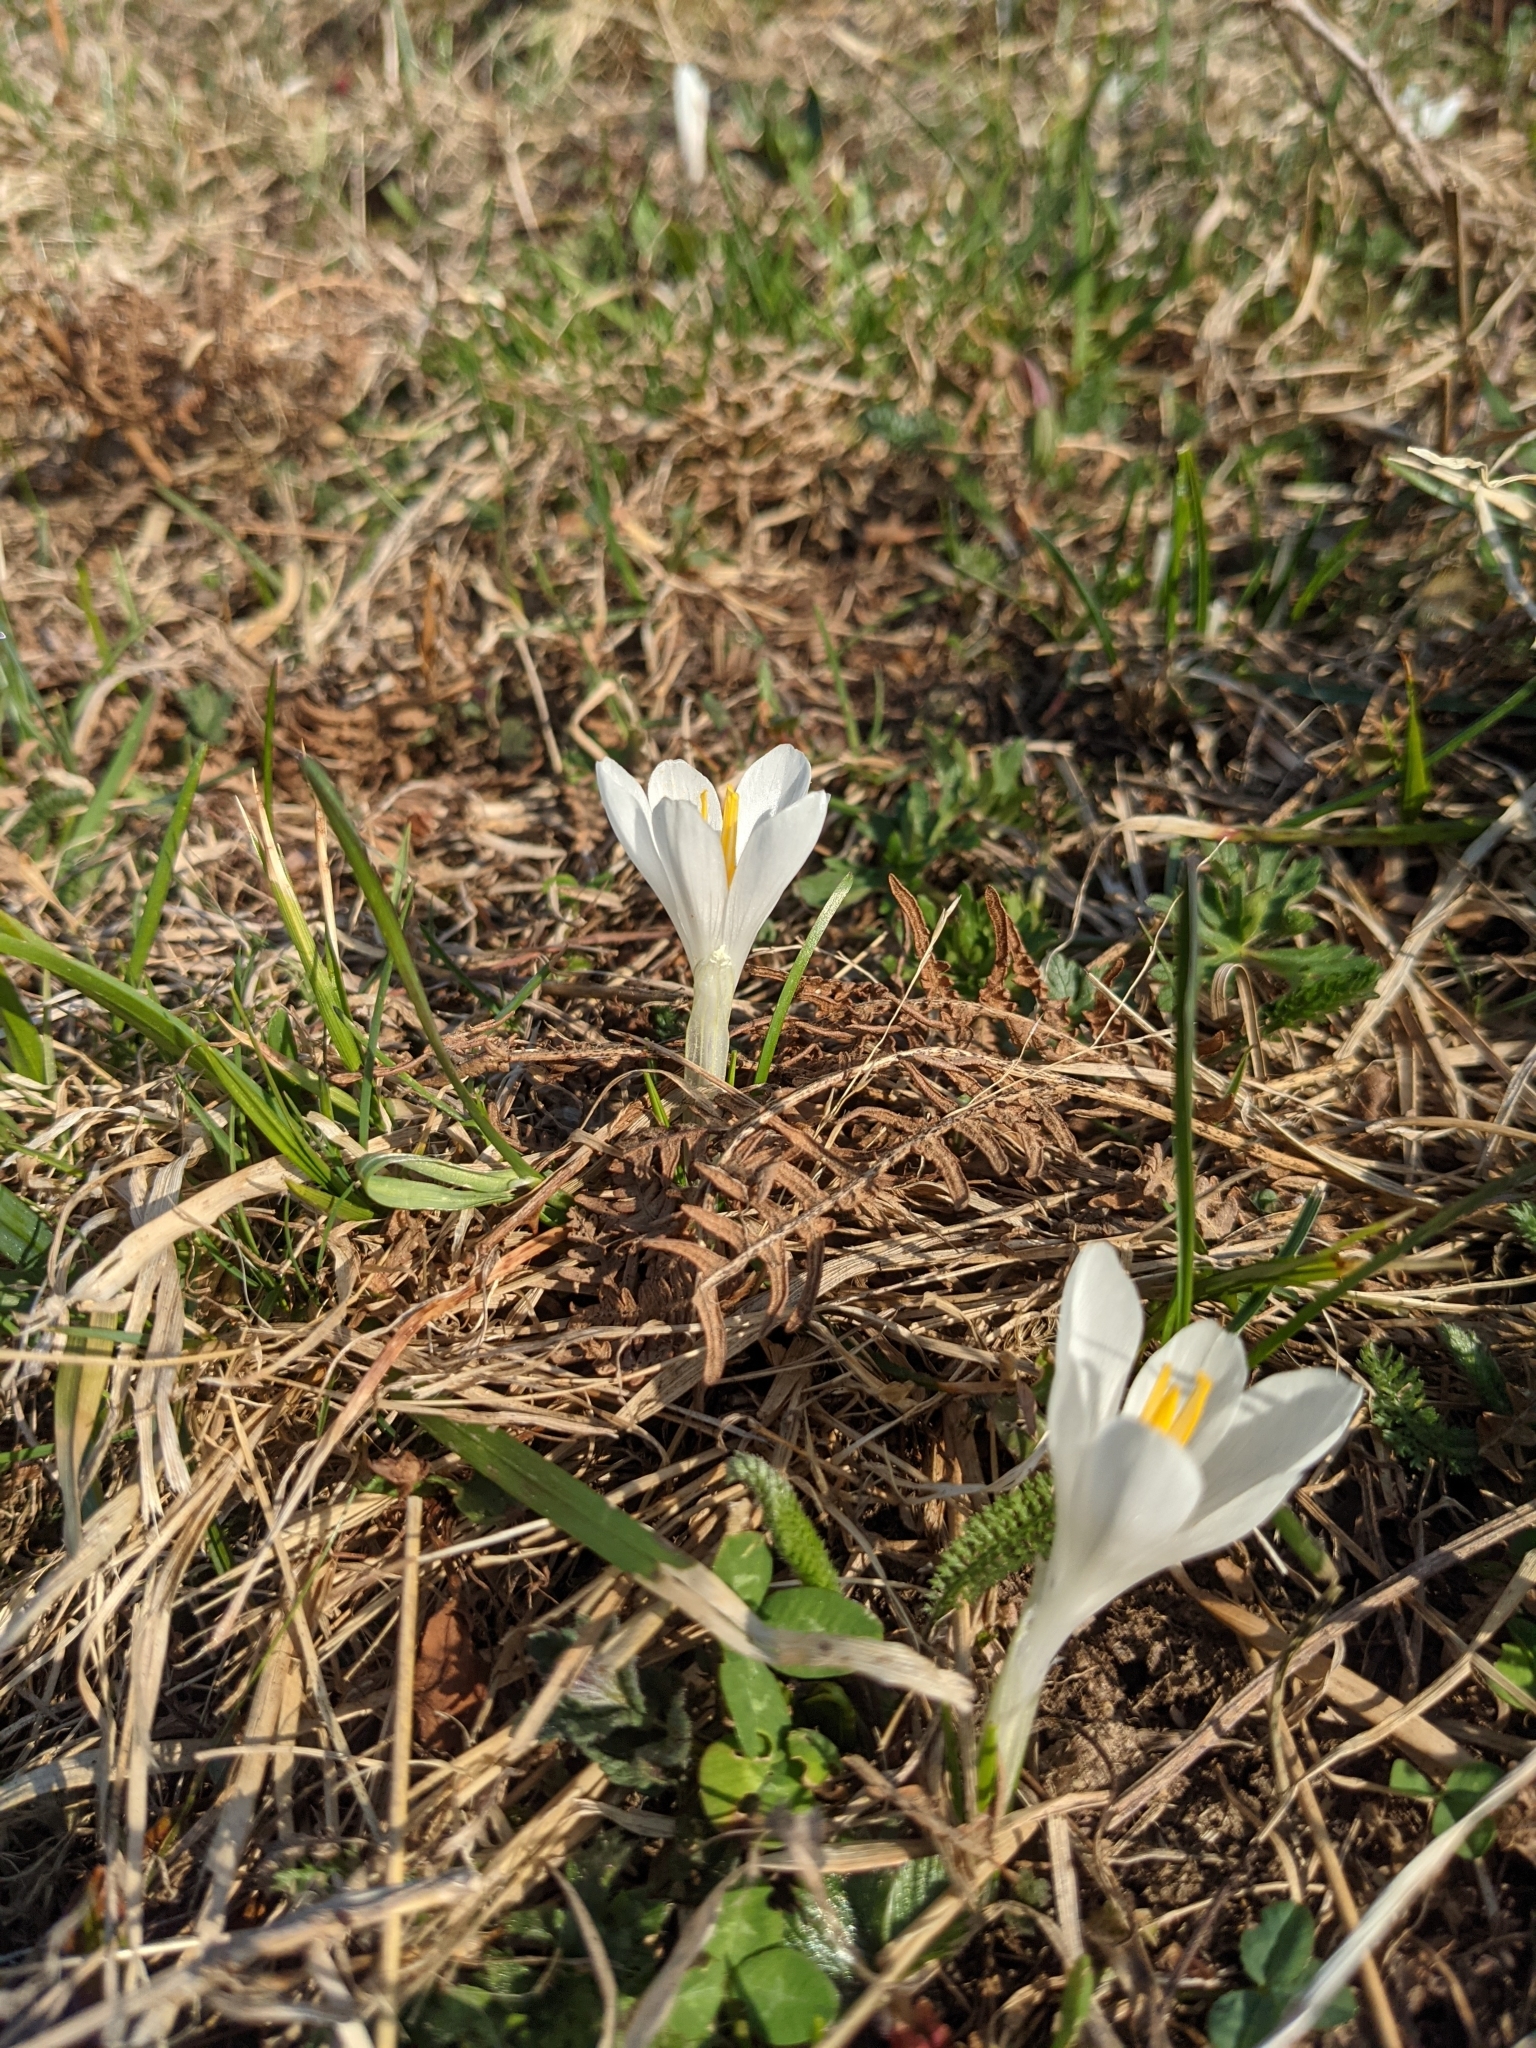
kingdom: Plantae
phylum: Tracheophyta
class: Liliopsida
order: Asparagales
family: Iridaceae
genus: Crocus
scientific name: Crocus vernus
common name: Spring crocus
